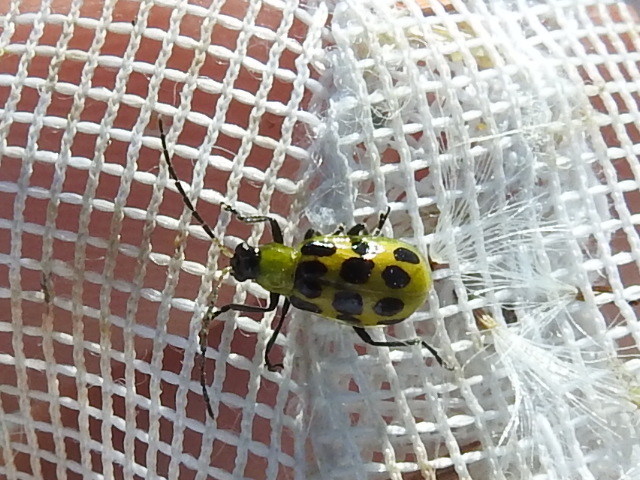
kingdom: Animalia
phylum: Arthropoda
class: Insecta
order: Coleoptera
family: Chrysomelidae
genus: Diabrotica
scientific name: Diabrotica undecimpunctata
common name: Spotted cucumber beetle
